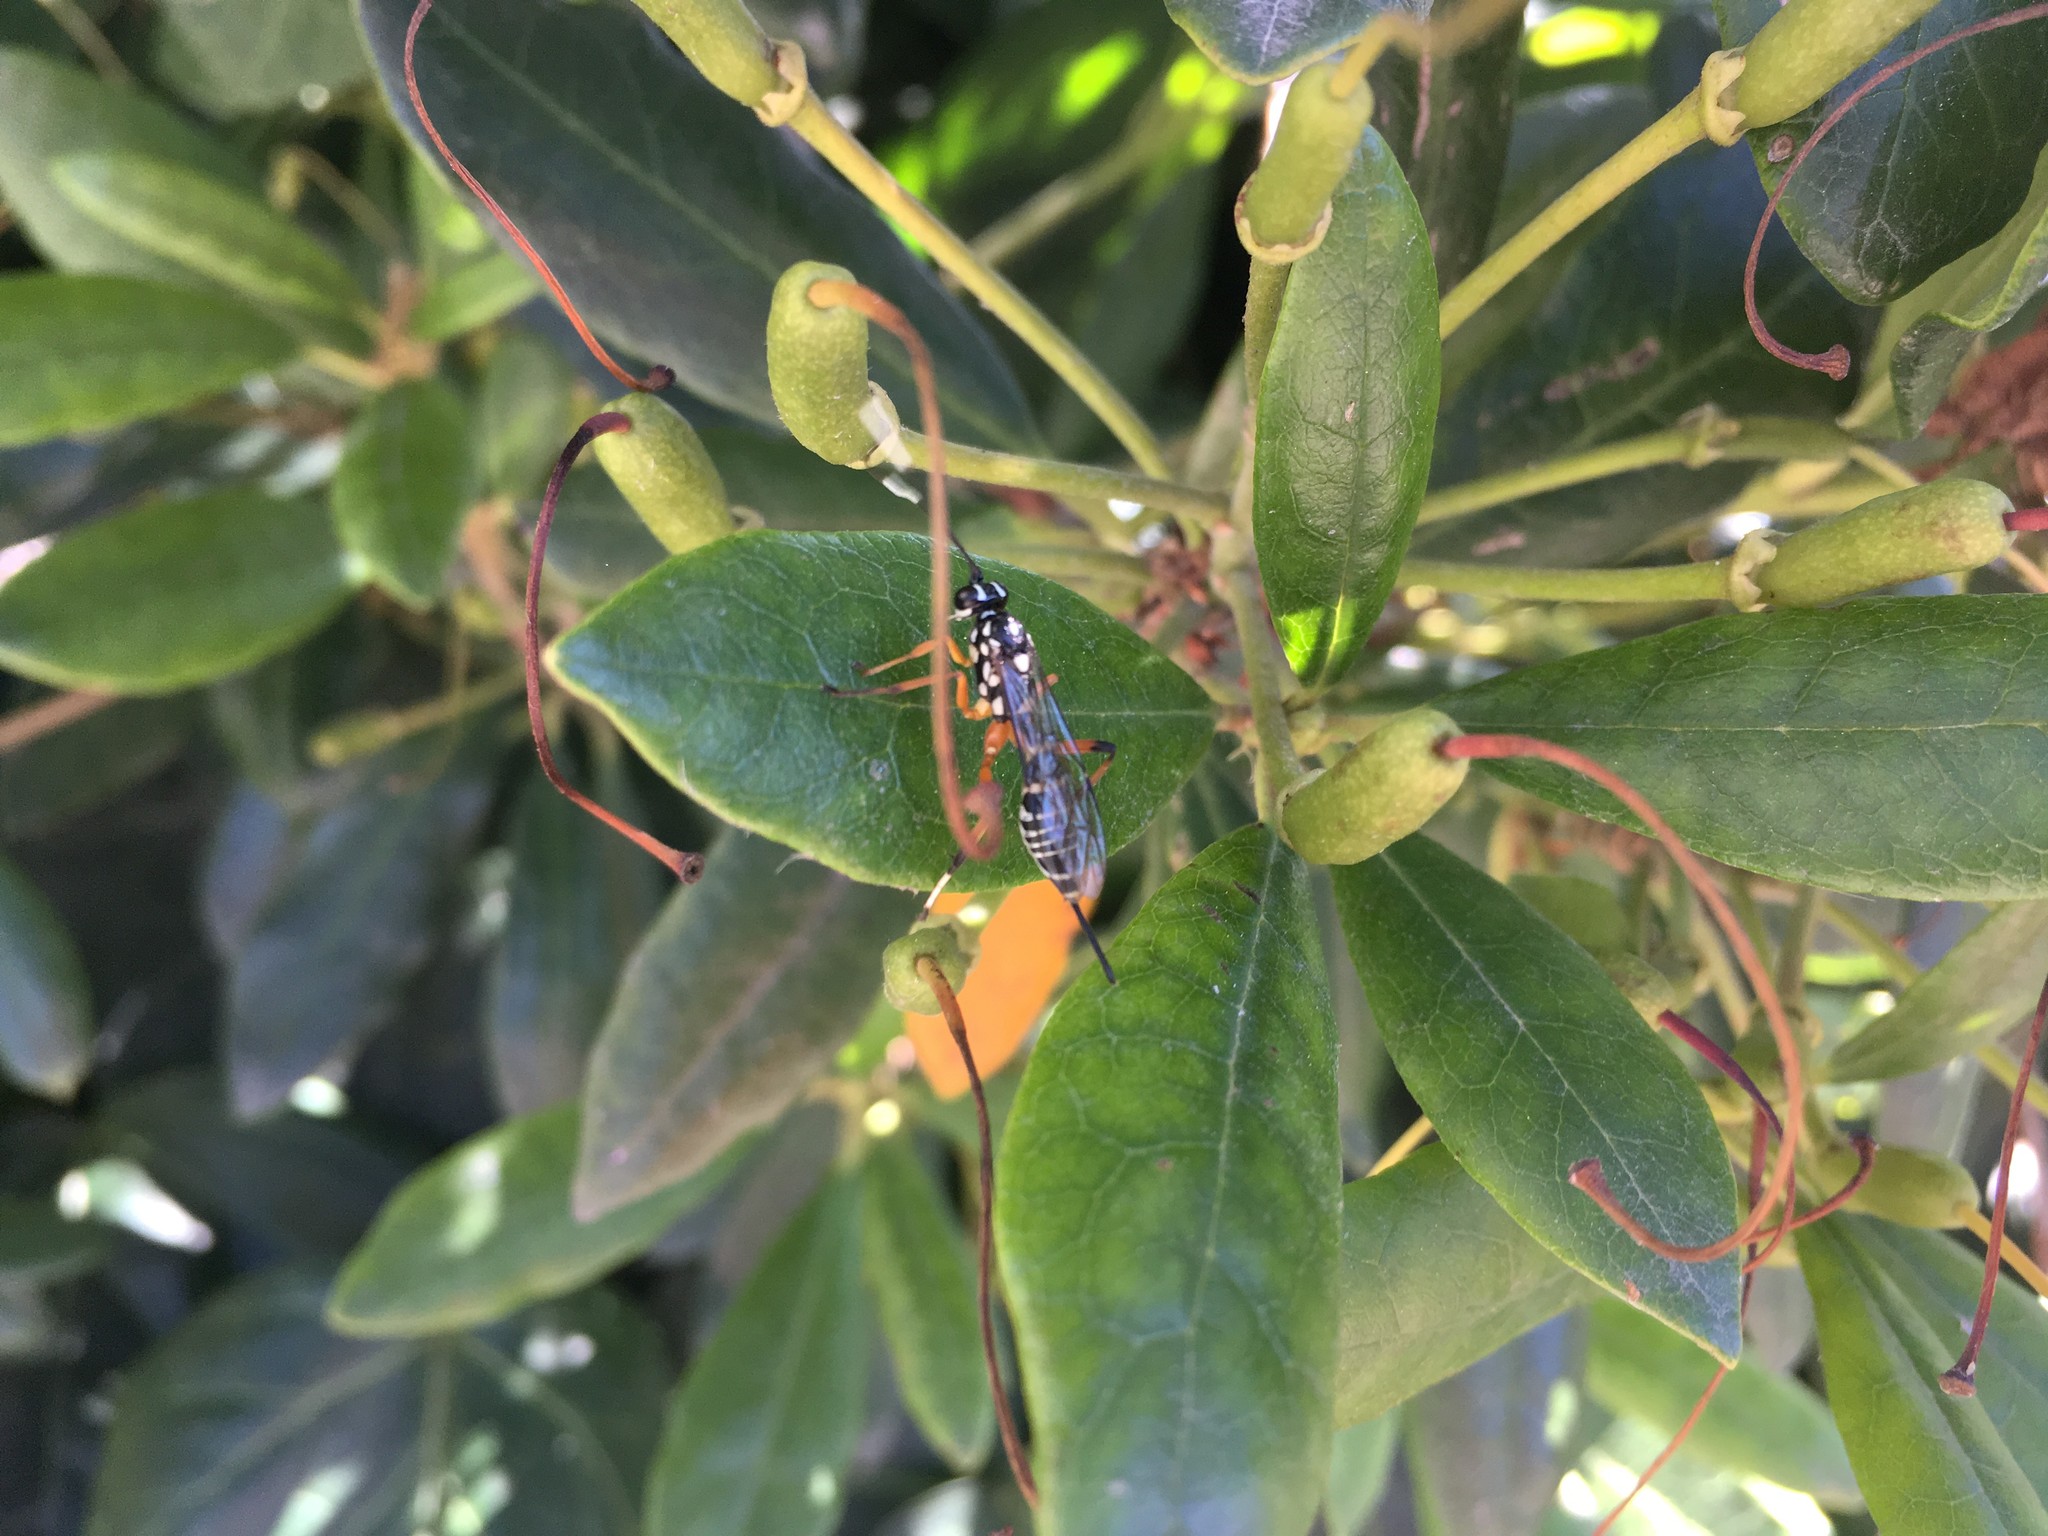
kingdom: Animalia
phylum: Arthropoda
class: Insecta
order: Hymenoptera
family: Ichneumonidae
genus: Xanthocryptus
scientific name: Xanthocryptus novozealandicus
